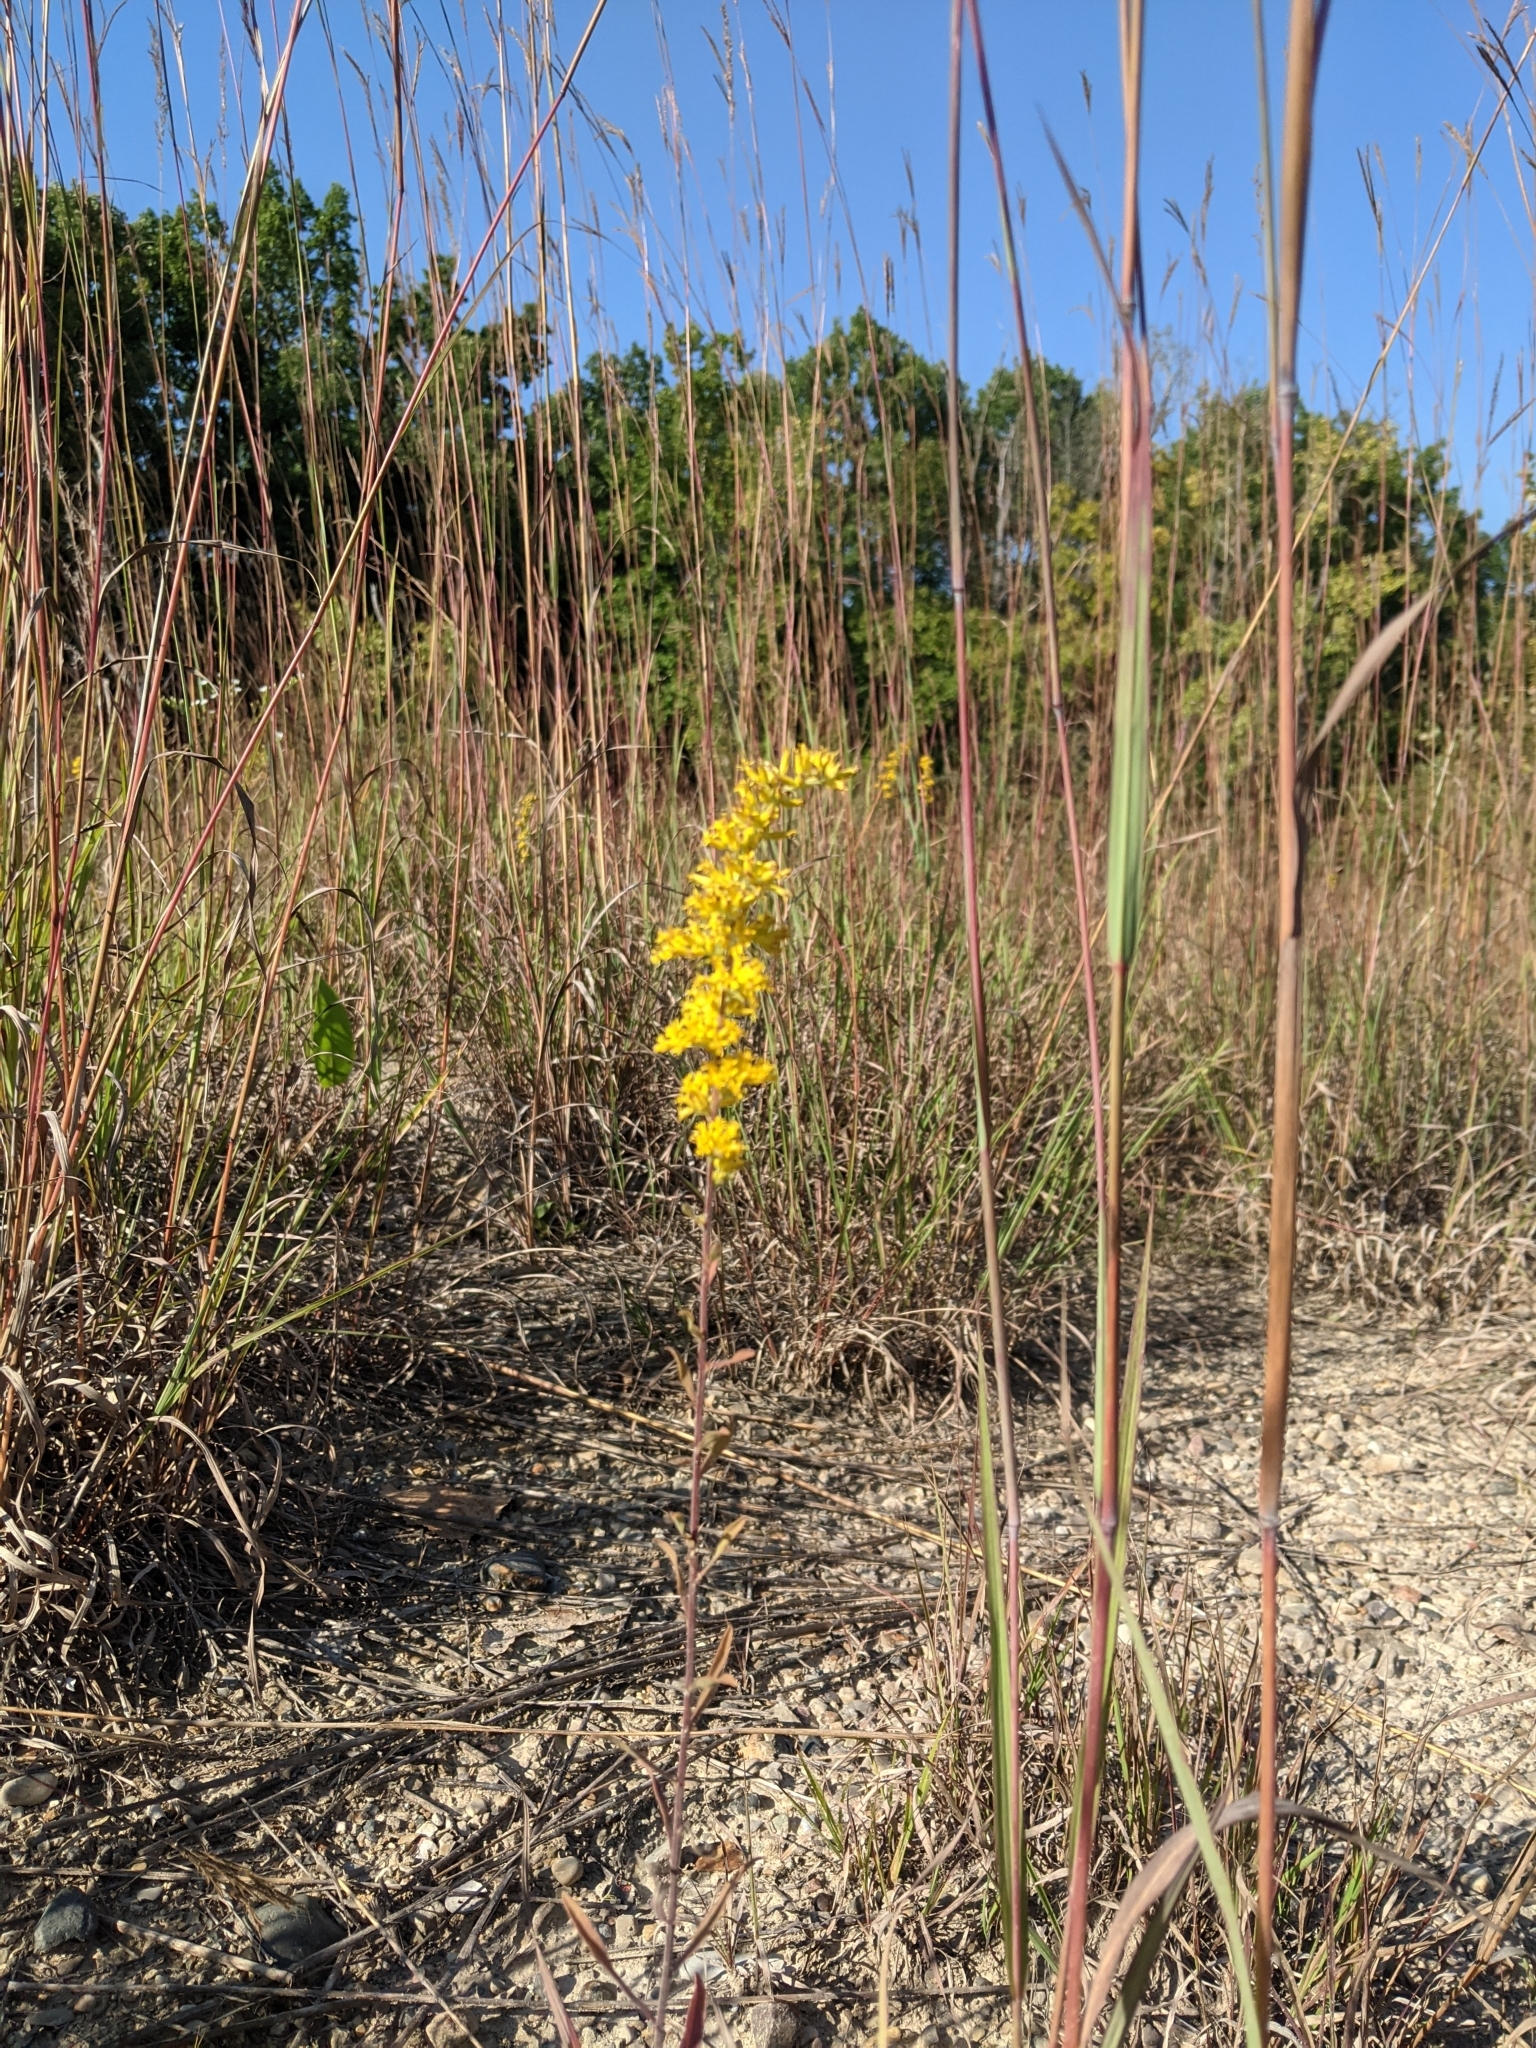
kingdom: Plantae
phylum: Tracheophyta
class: Magnoliopsida
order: Asterales
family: Asteraceae
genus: Solidago
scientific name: Solidago nemoralis
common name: Grey goldenrod
